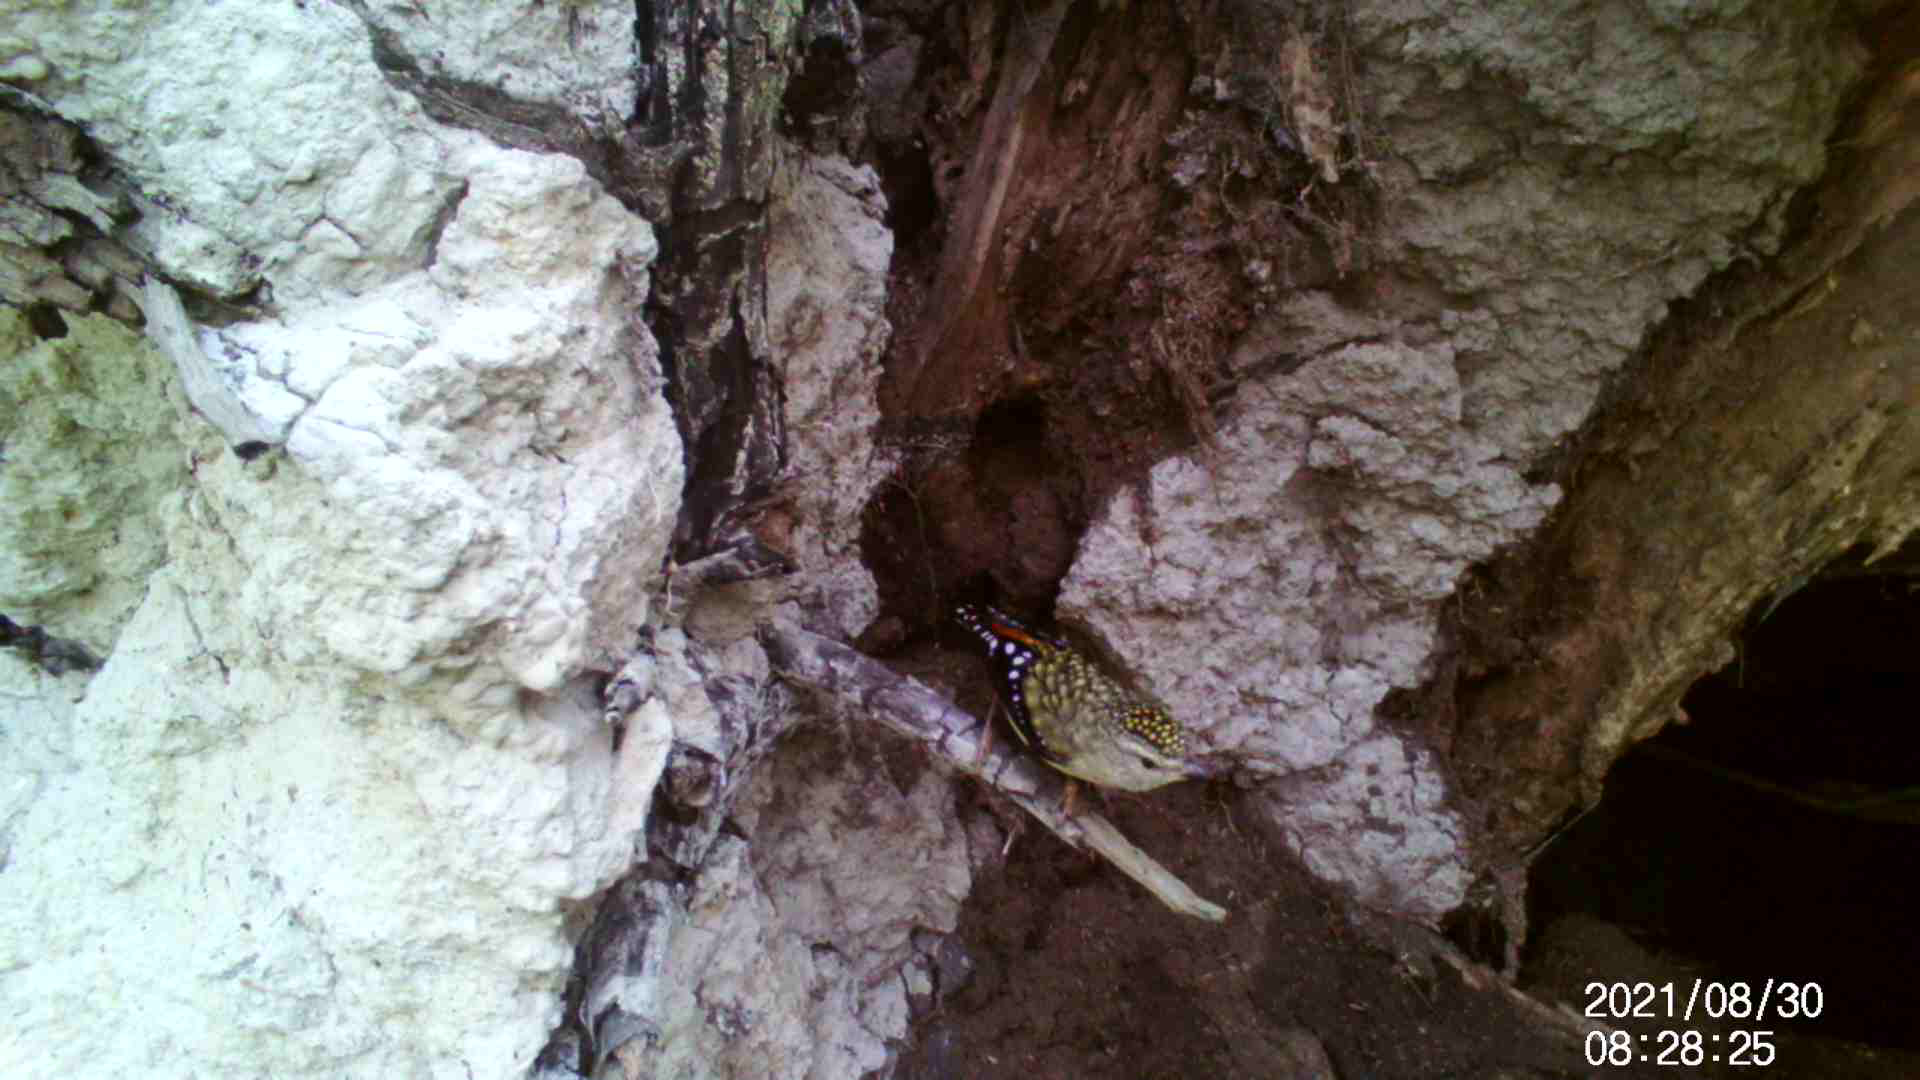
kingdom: Animalia
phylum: Chordata
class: Aves
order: Passeriformes
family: Pardalotidae
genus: Pardalotus
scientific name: Pardalotus punctatus
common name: Spotted pardalote
